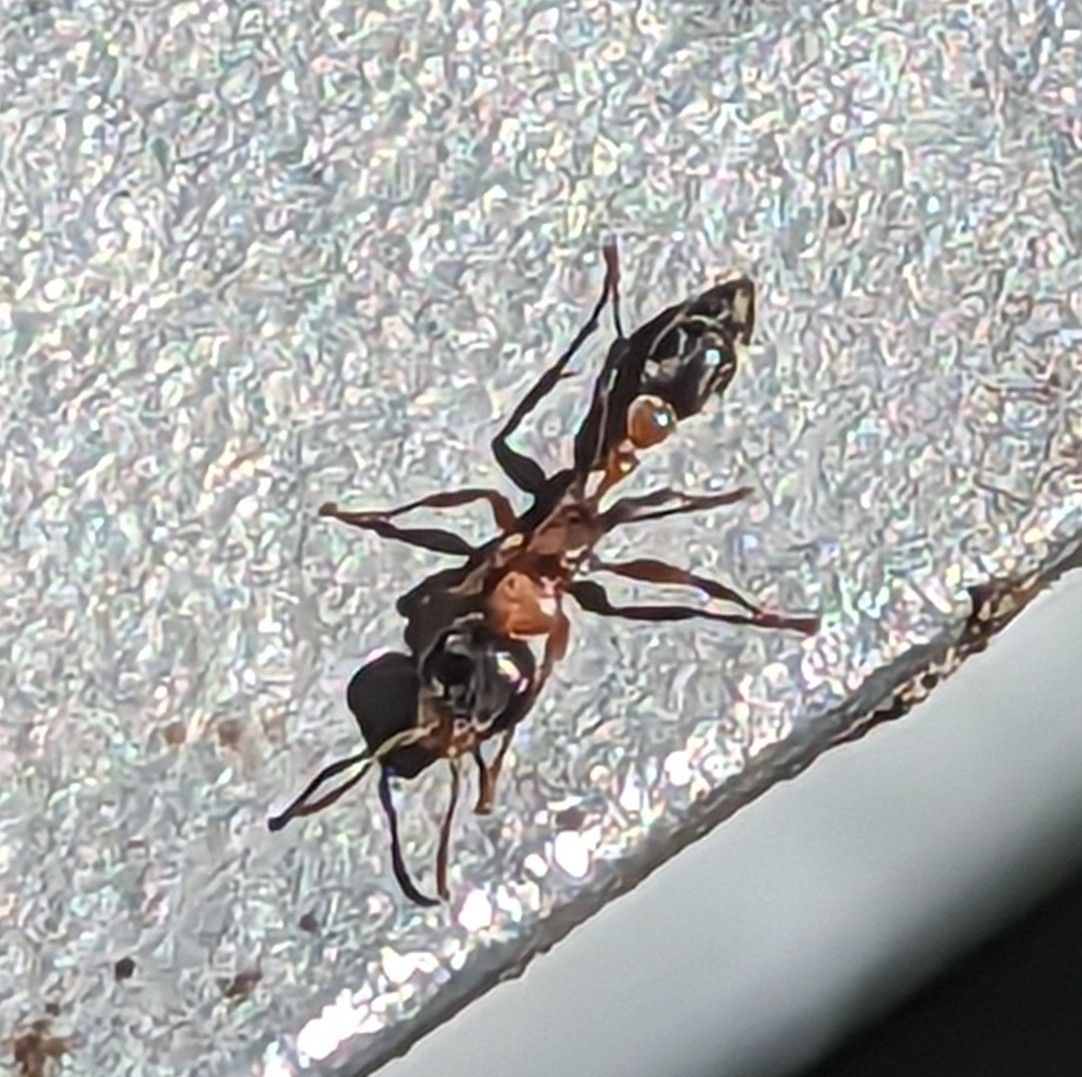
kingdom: Animalia
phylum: Arthropoda
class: Insecta
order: Hymenoptera
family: Formicidae
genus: Pseudomyrmex
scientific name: Pseudomyrmex gracilis
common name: Graceful twig ant
